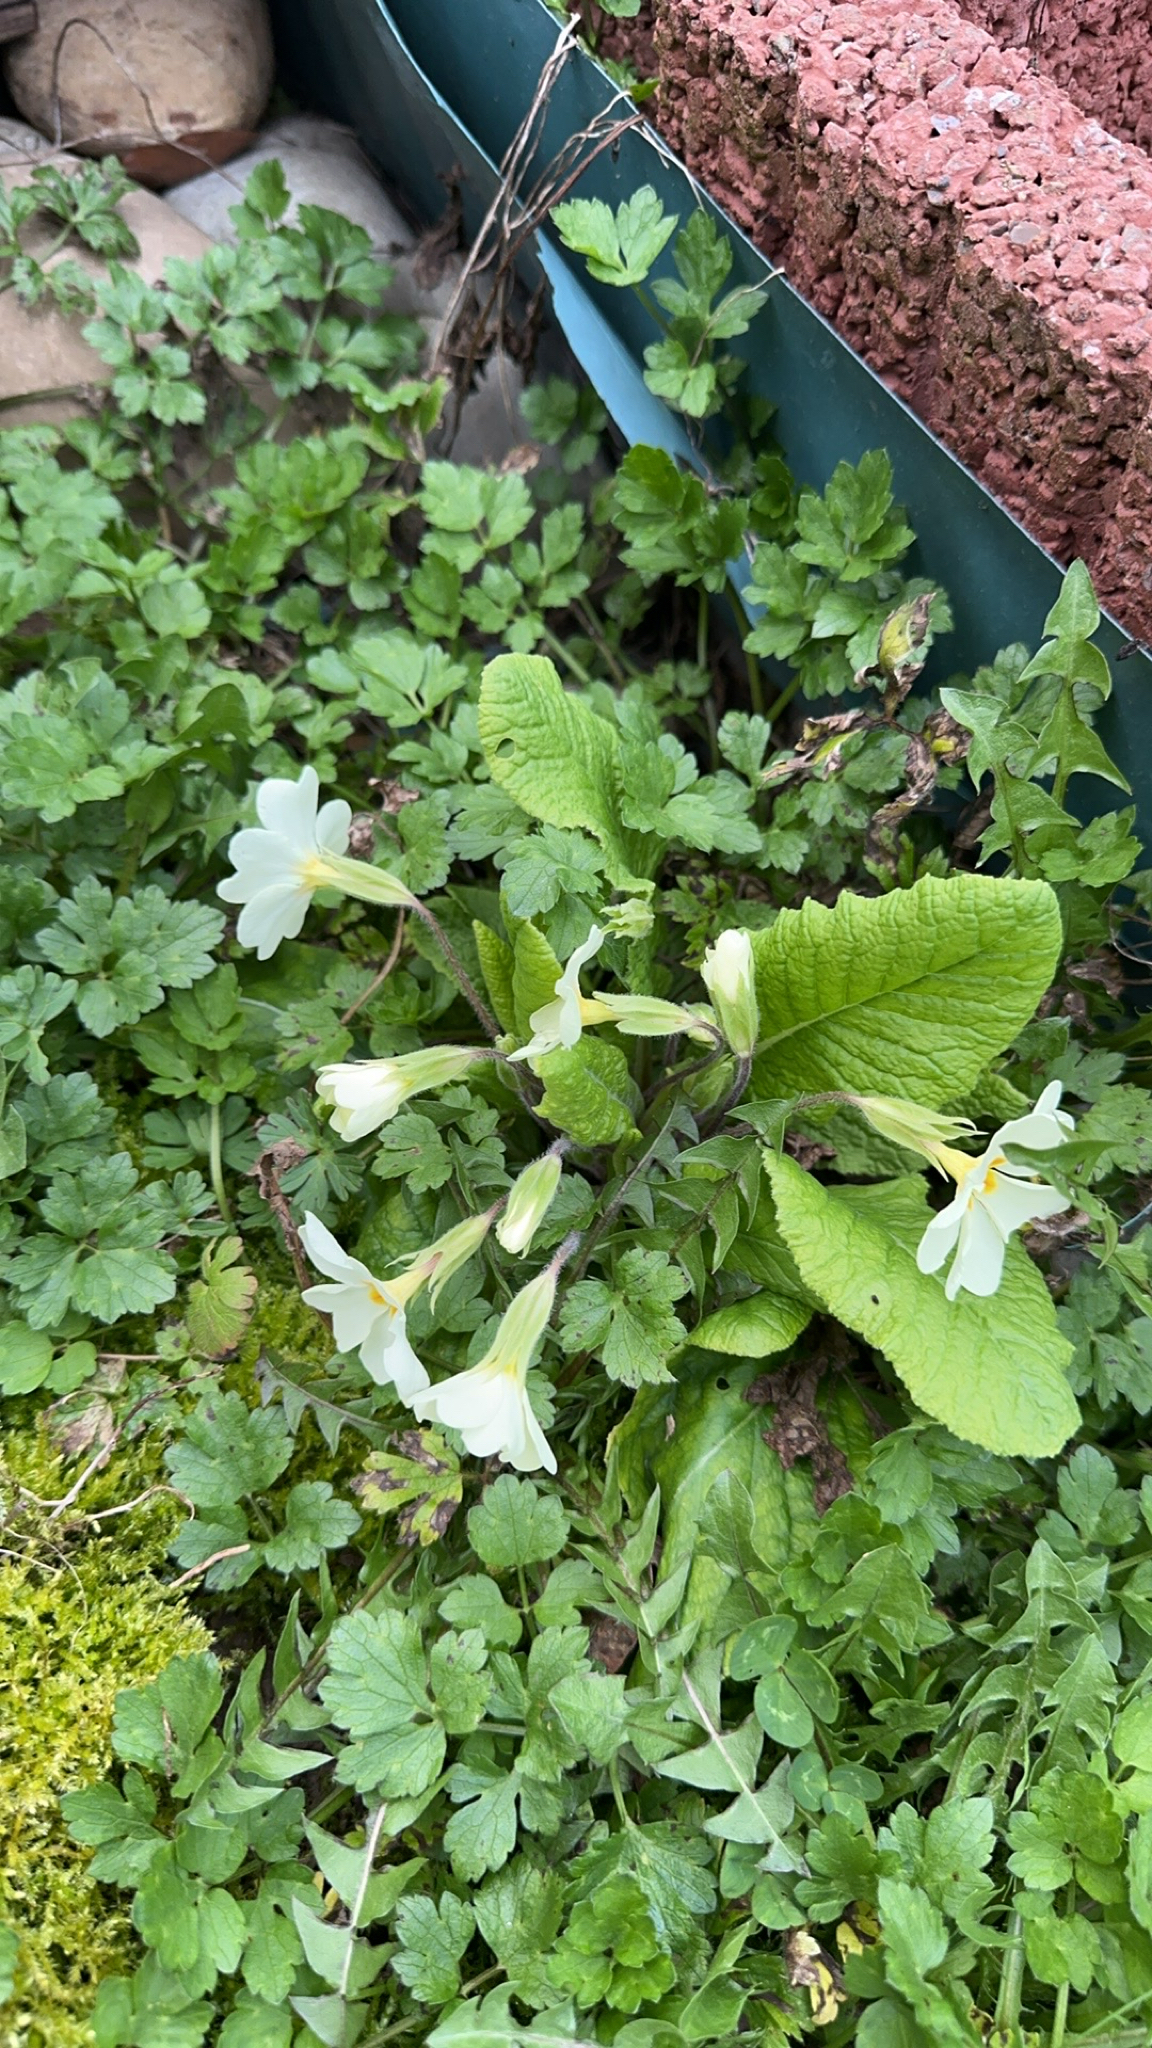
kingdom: Plantae
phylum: Tracheophyta
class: Magnoliopsida
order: Ericales
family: Primulaceae
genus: Primula
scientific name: Primula vulgaris
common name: Primrose
